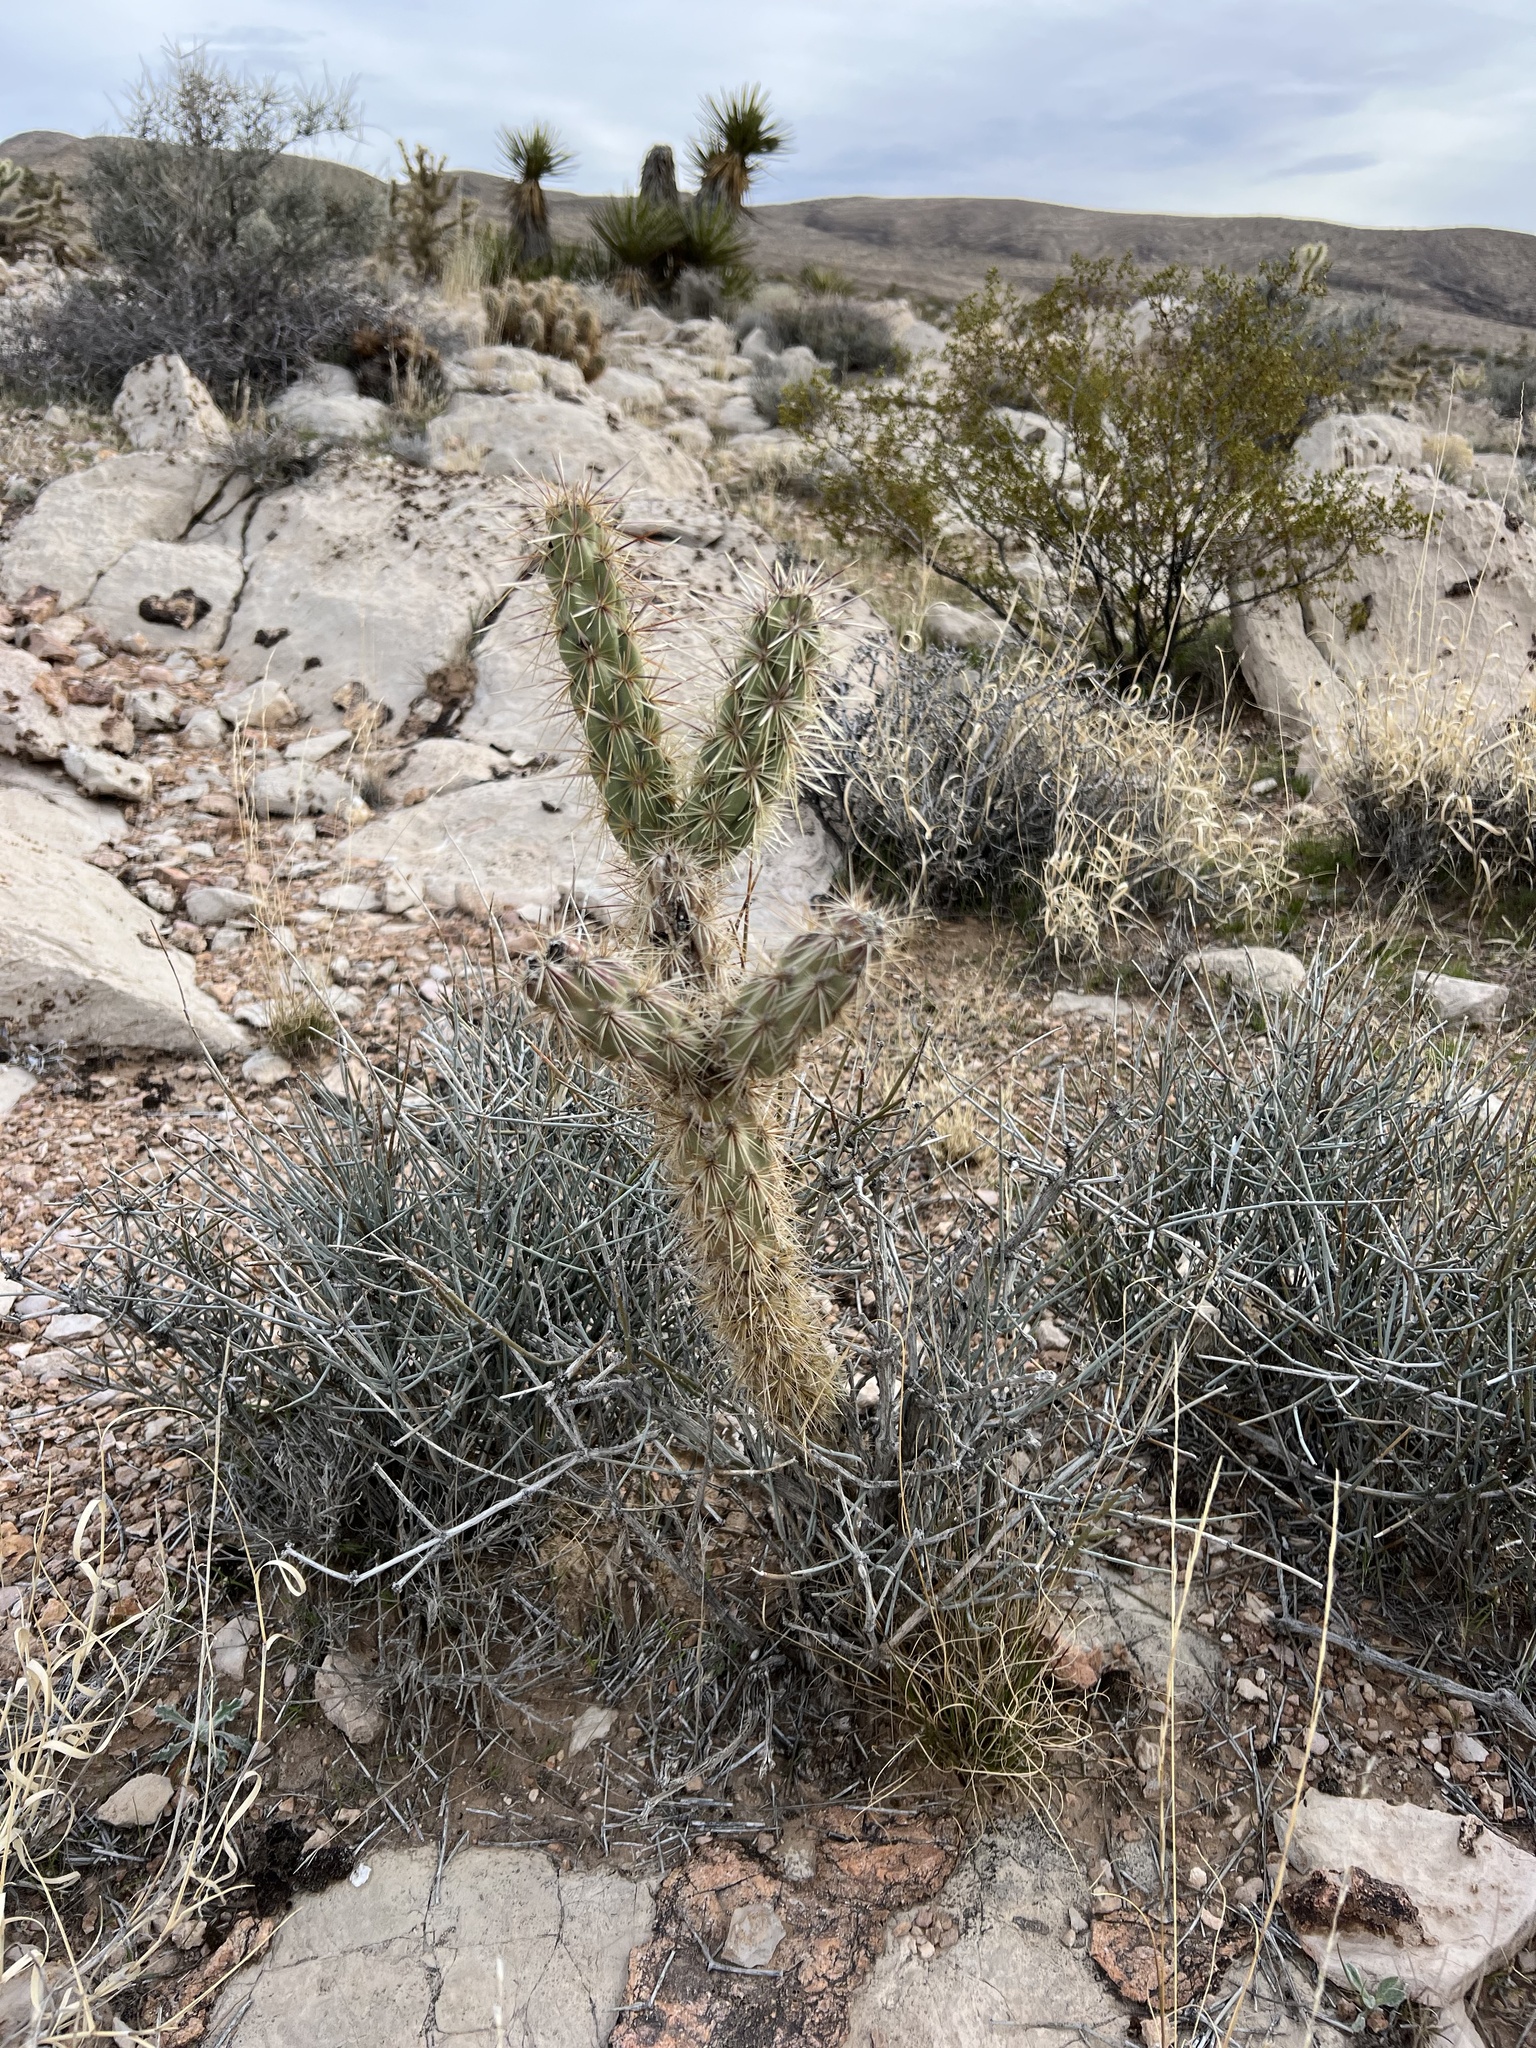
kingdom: Plantae
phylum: Tracheophyta
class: Magnoliopsida
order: Caryophyllales
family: Cactaceae
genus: Cylindropuntia
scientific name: Cylindropuntia acanthocarpa
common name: Buckhorn cholla
